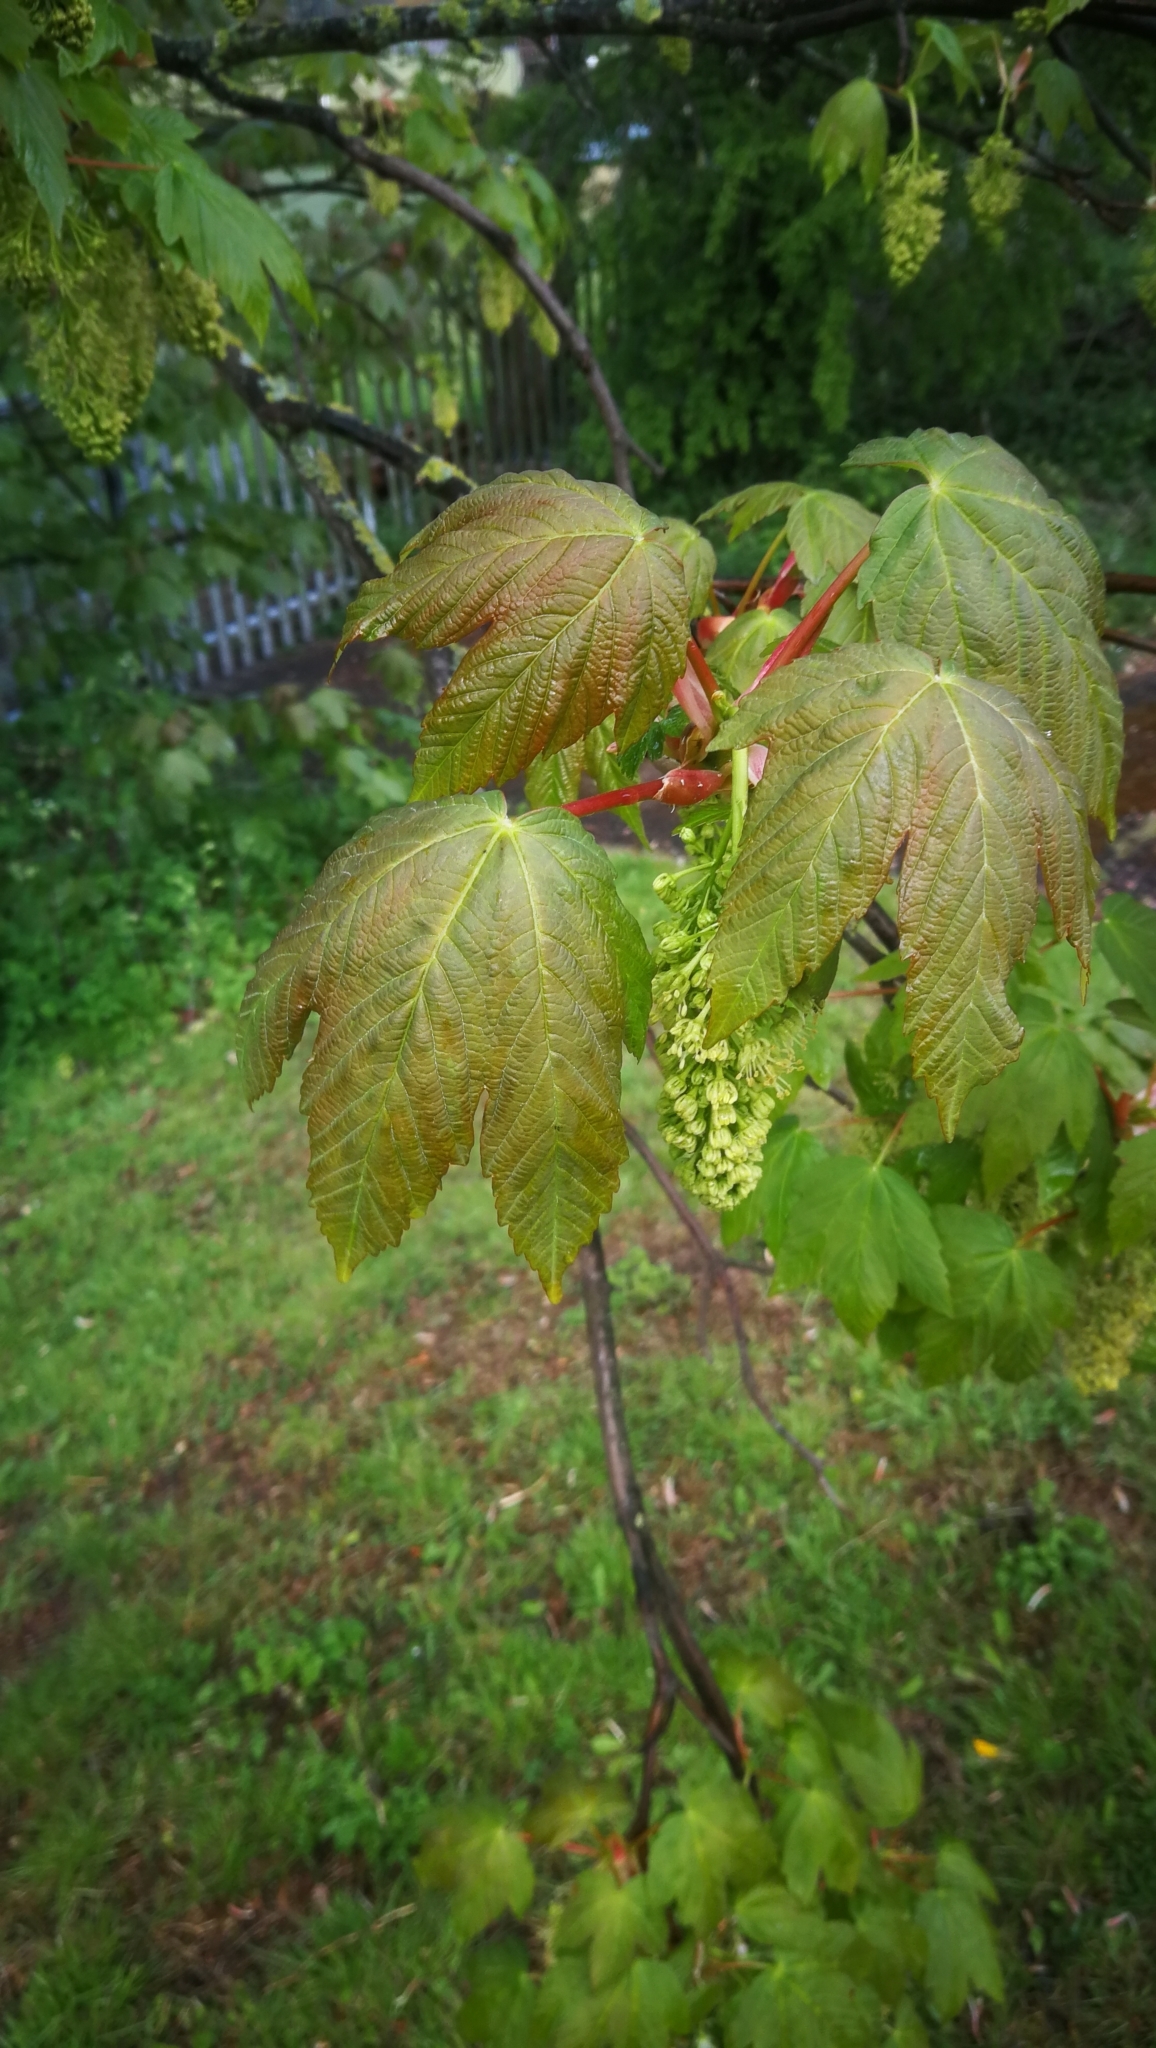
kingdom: Plantae
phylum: Tracheophyta
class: Magnoliopsida
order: Sapindales
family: Sapindaceae
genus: Acer
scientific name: Acer pseudoplatanus
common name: Sycamore
